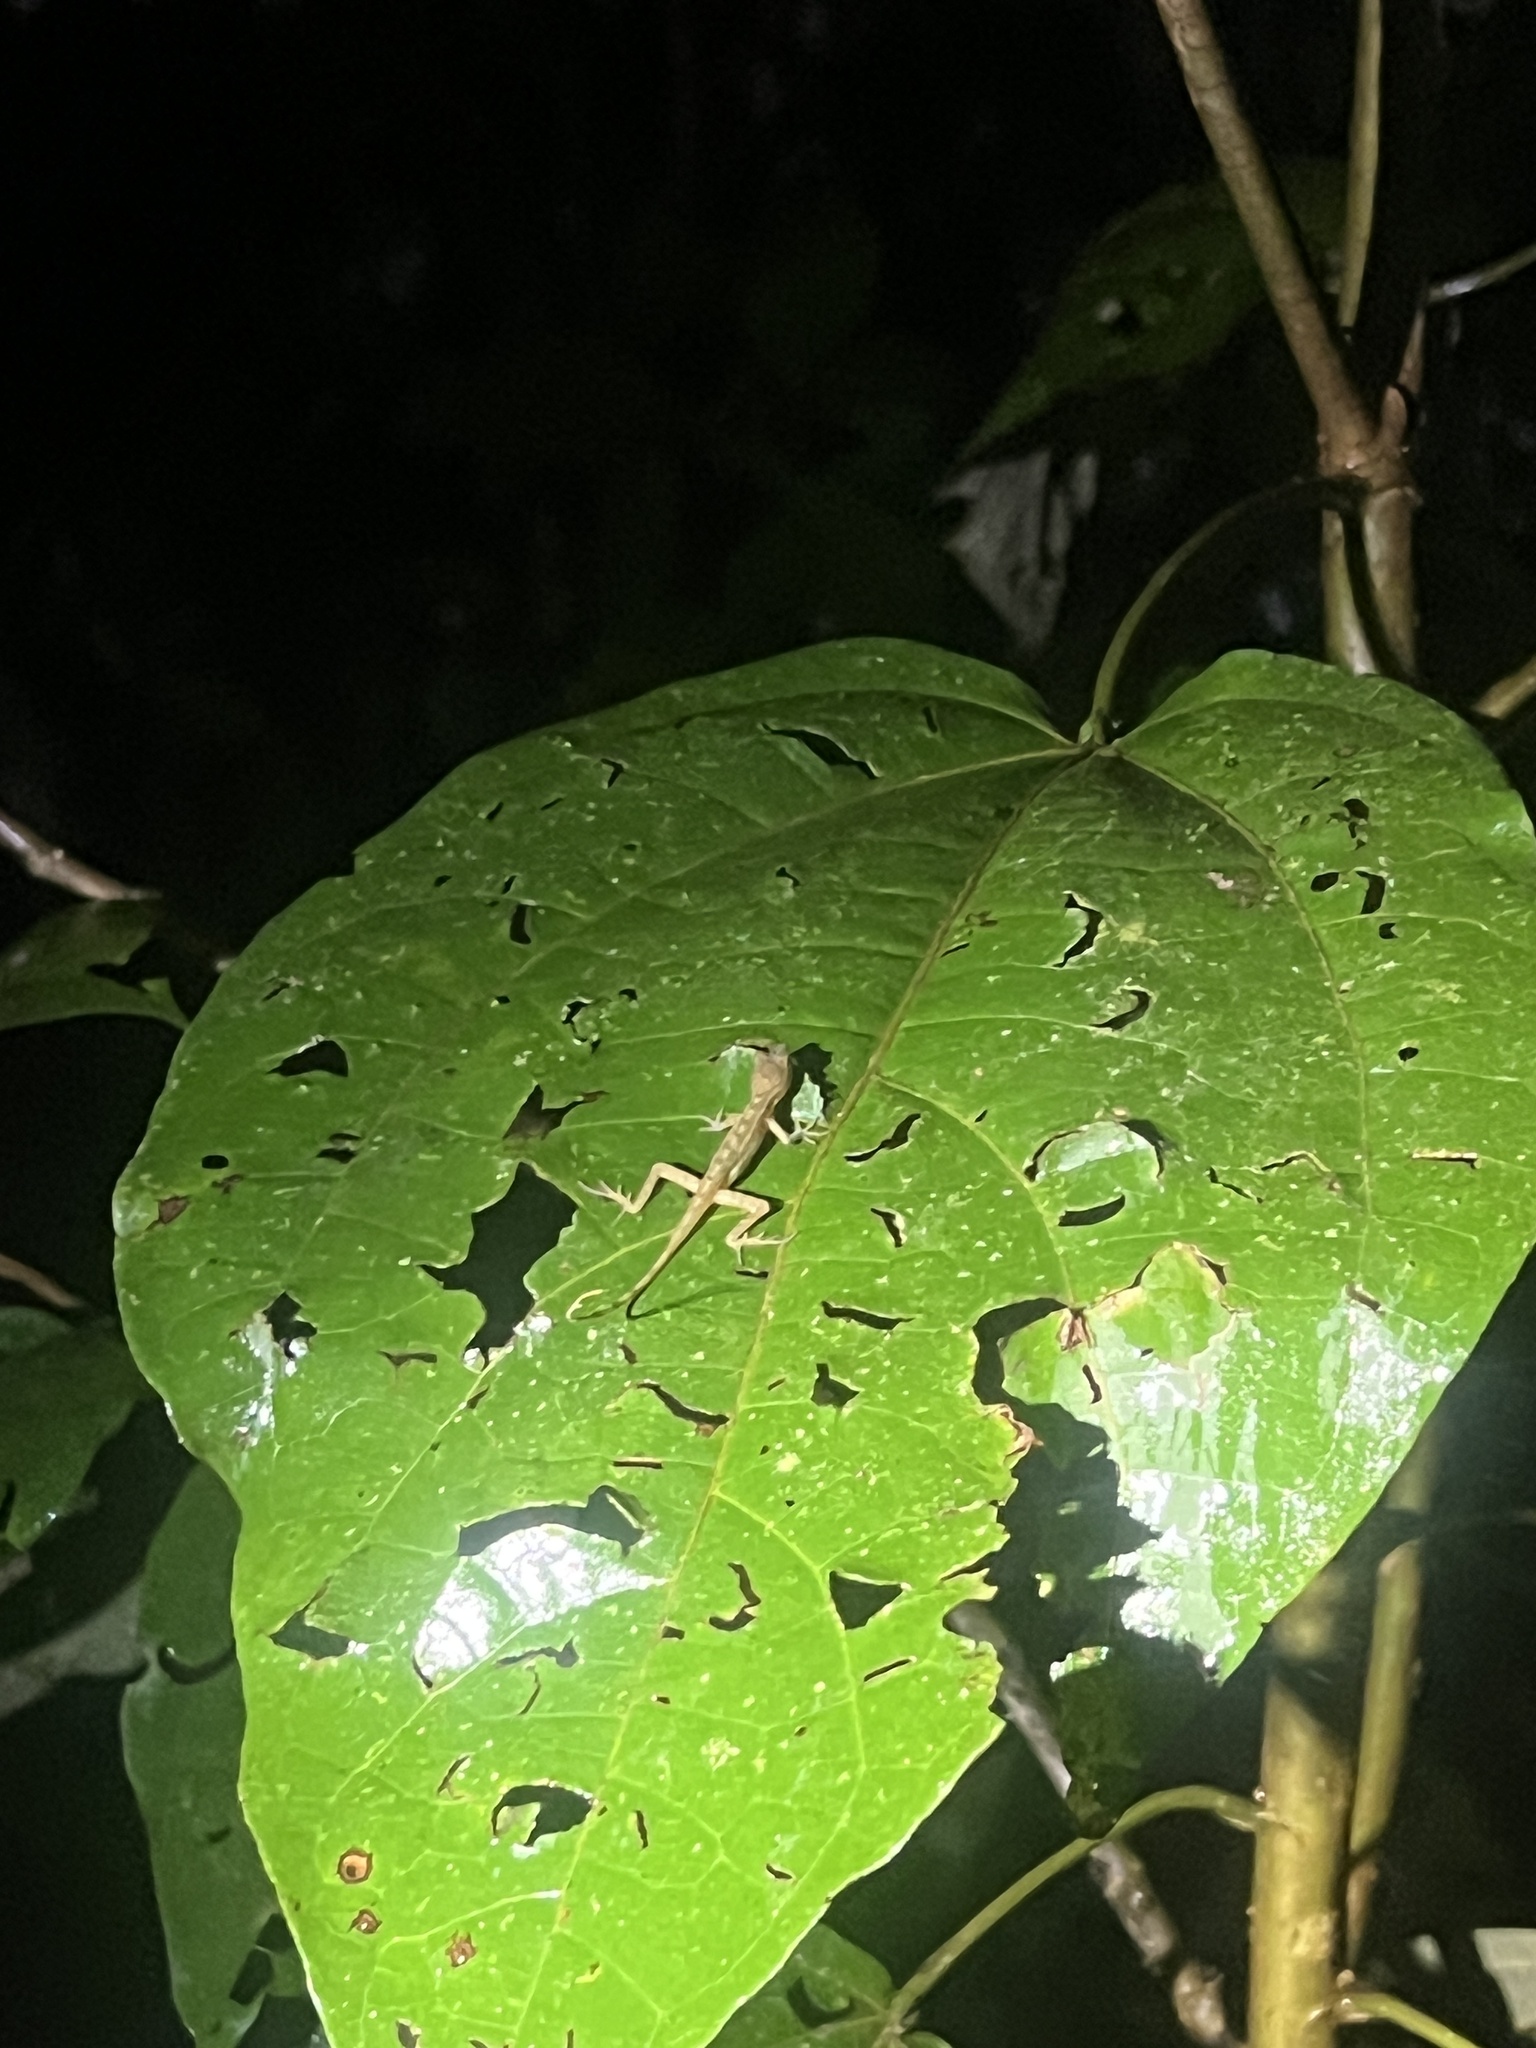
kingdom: Animalia
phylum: Chordata
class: Squamata
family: Dactyloidae
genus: Anolis
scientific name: Anolis limifrons
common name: Border anole
